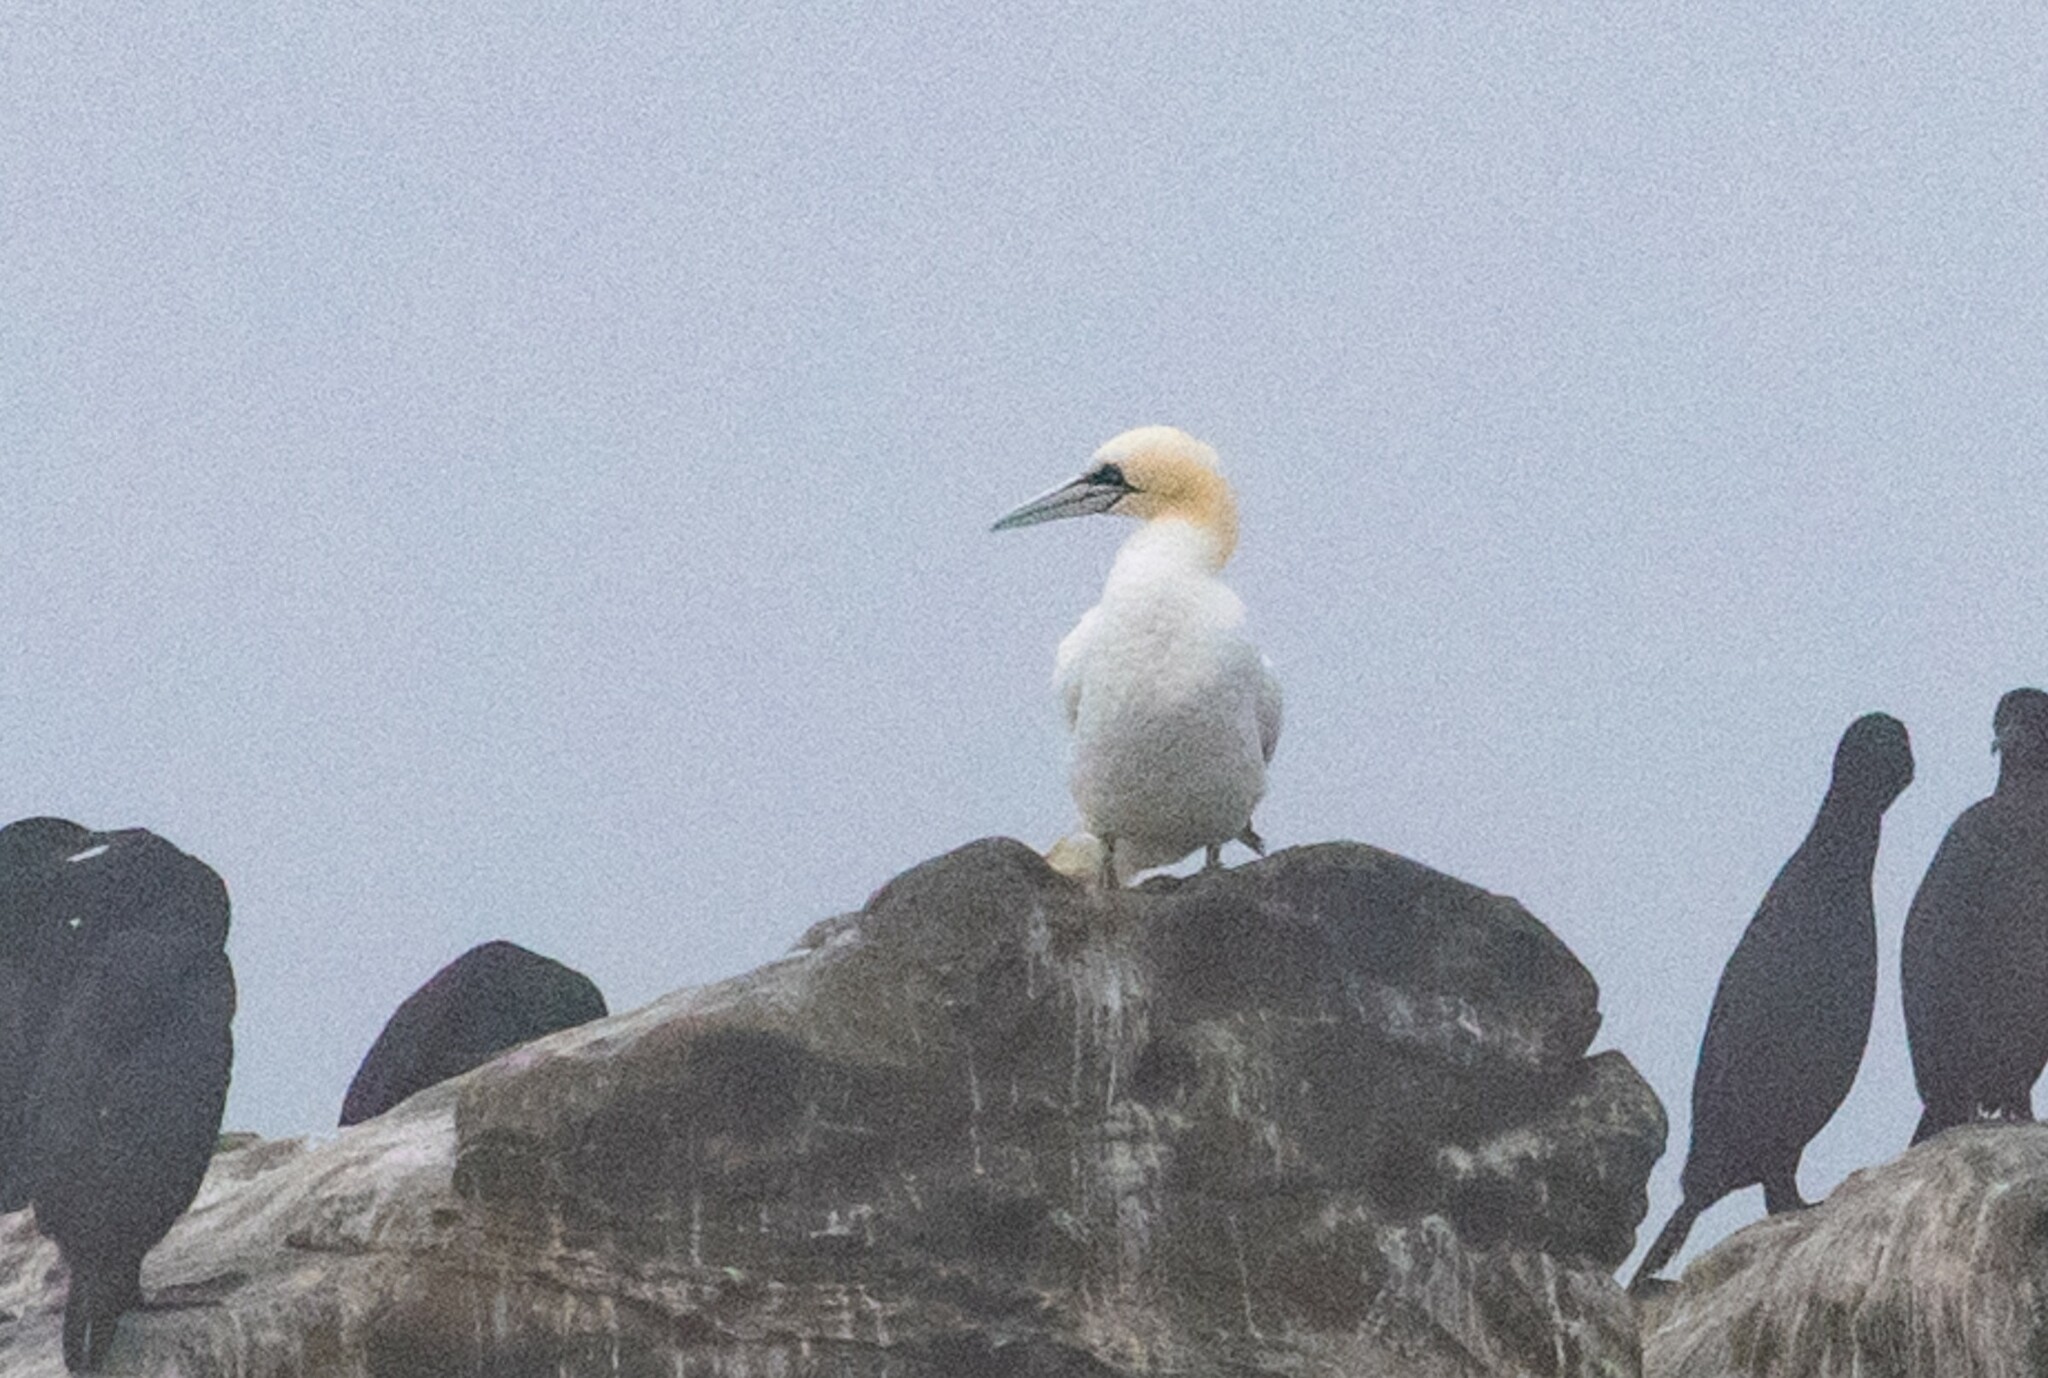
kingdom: Animalia
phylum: Chordata
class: Aves
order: Suliformes
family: Sulidae
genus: Morus
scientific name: Morus bassanus
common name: Northern gannet
